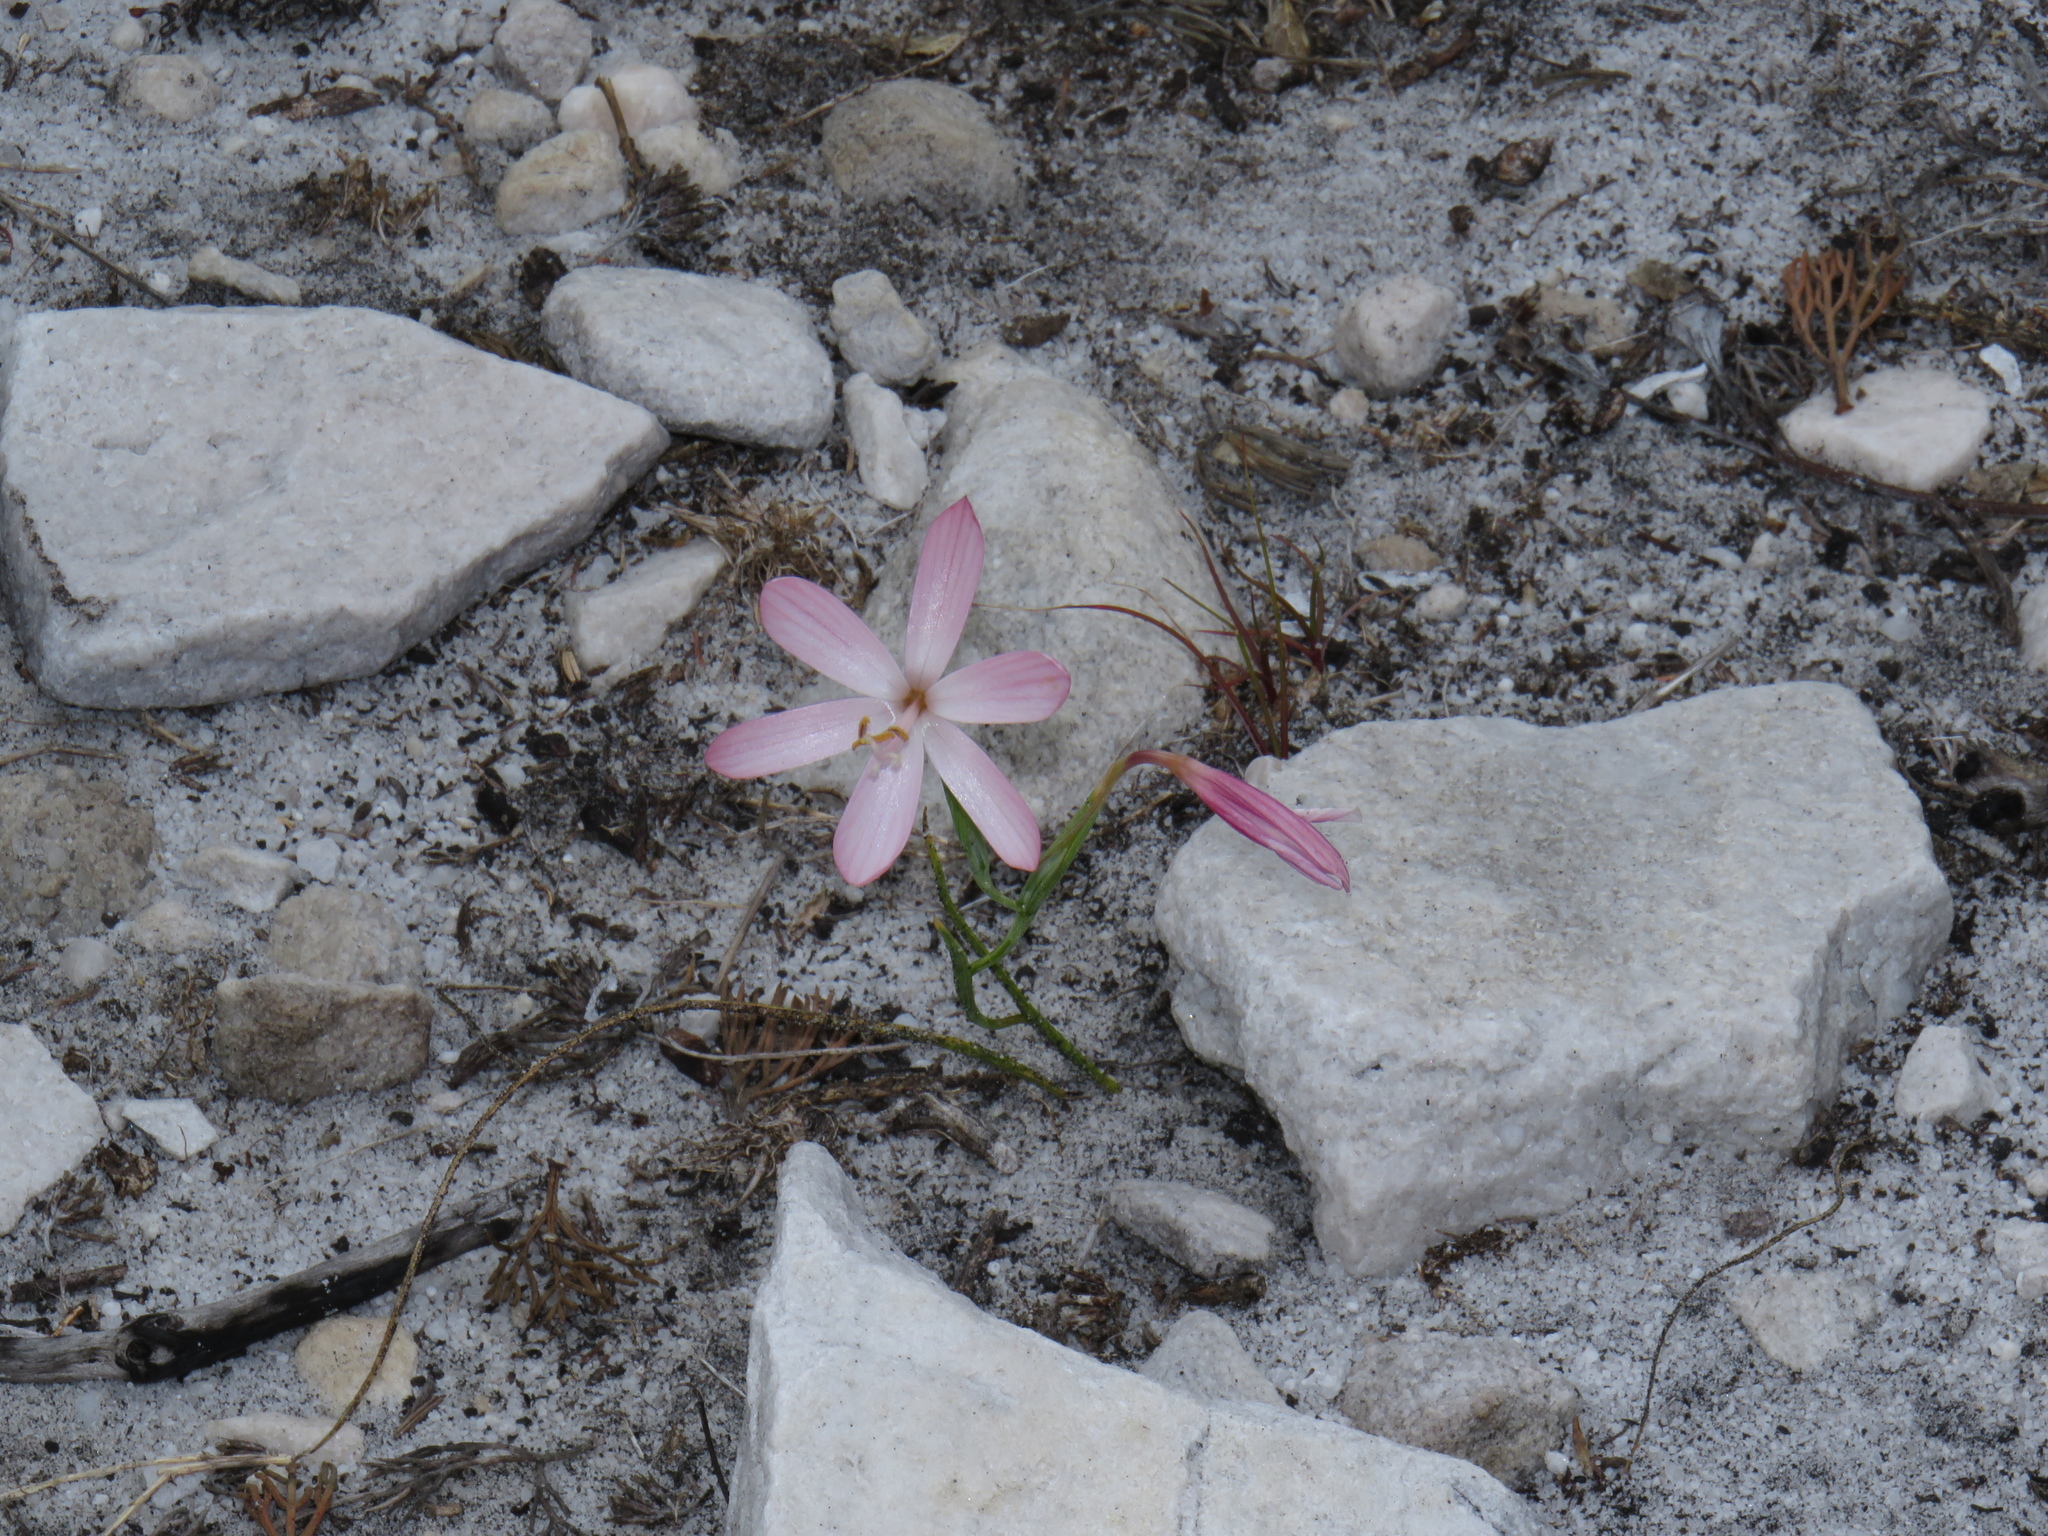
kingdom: Plantae
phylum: Tracheophyta
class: Liliopsida
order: Asparagales
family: Iridaceae
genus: Geissorhiza
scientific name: Geissorhiza bonae-spei
